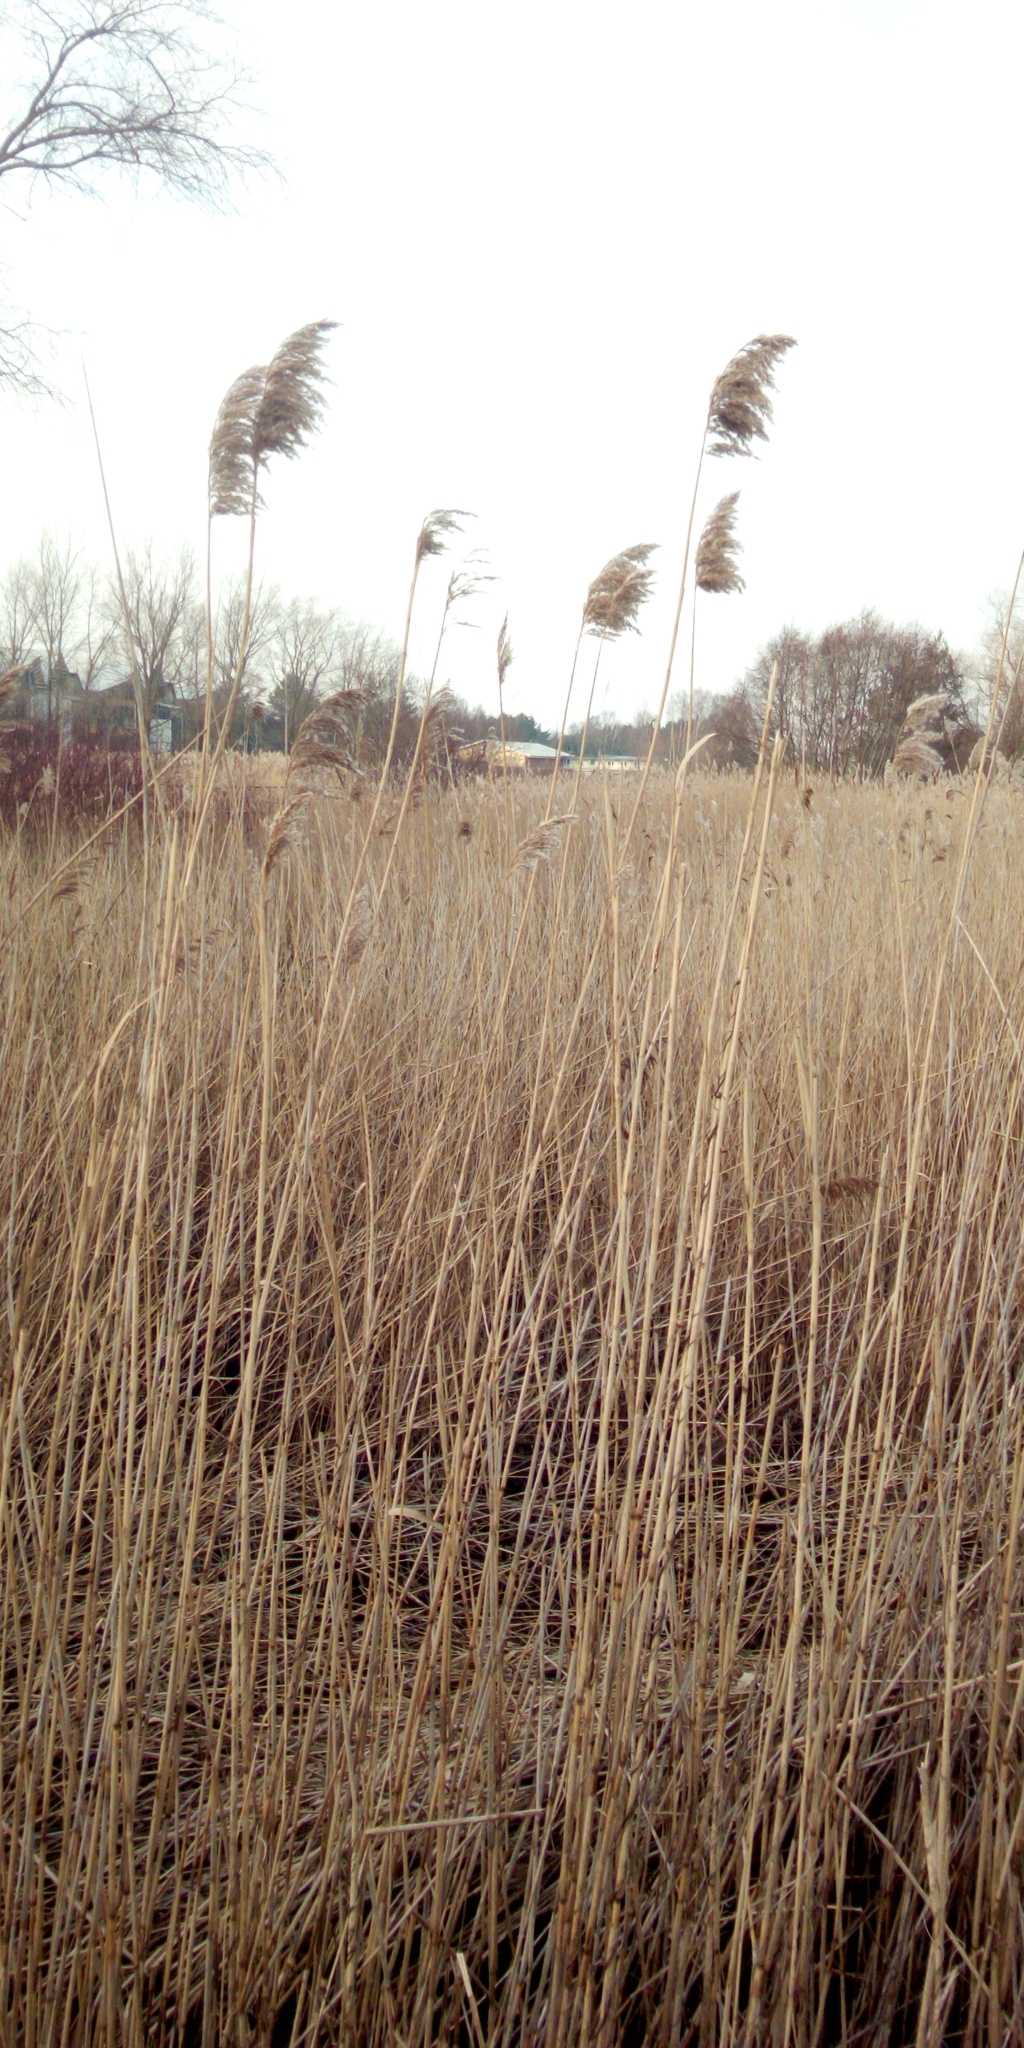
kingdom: Plantae
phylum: Tracheophyta
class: Liliopsida
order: Poales
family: Poaceae
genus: Phragmites
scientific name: Phragmites australis
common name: Common reed
